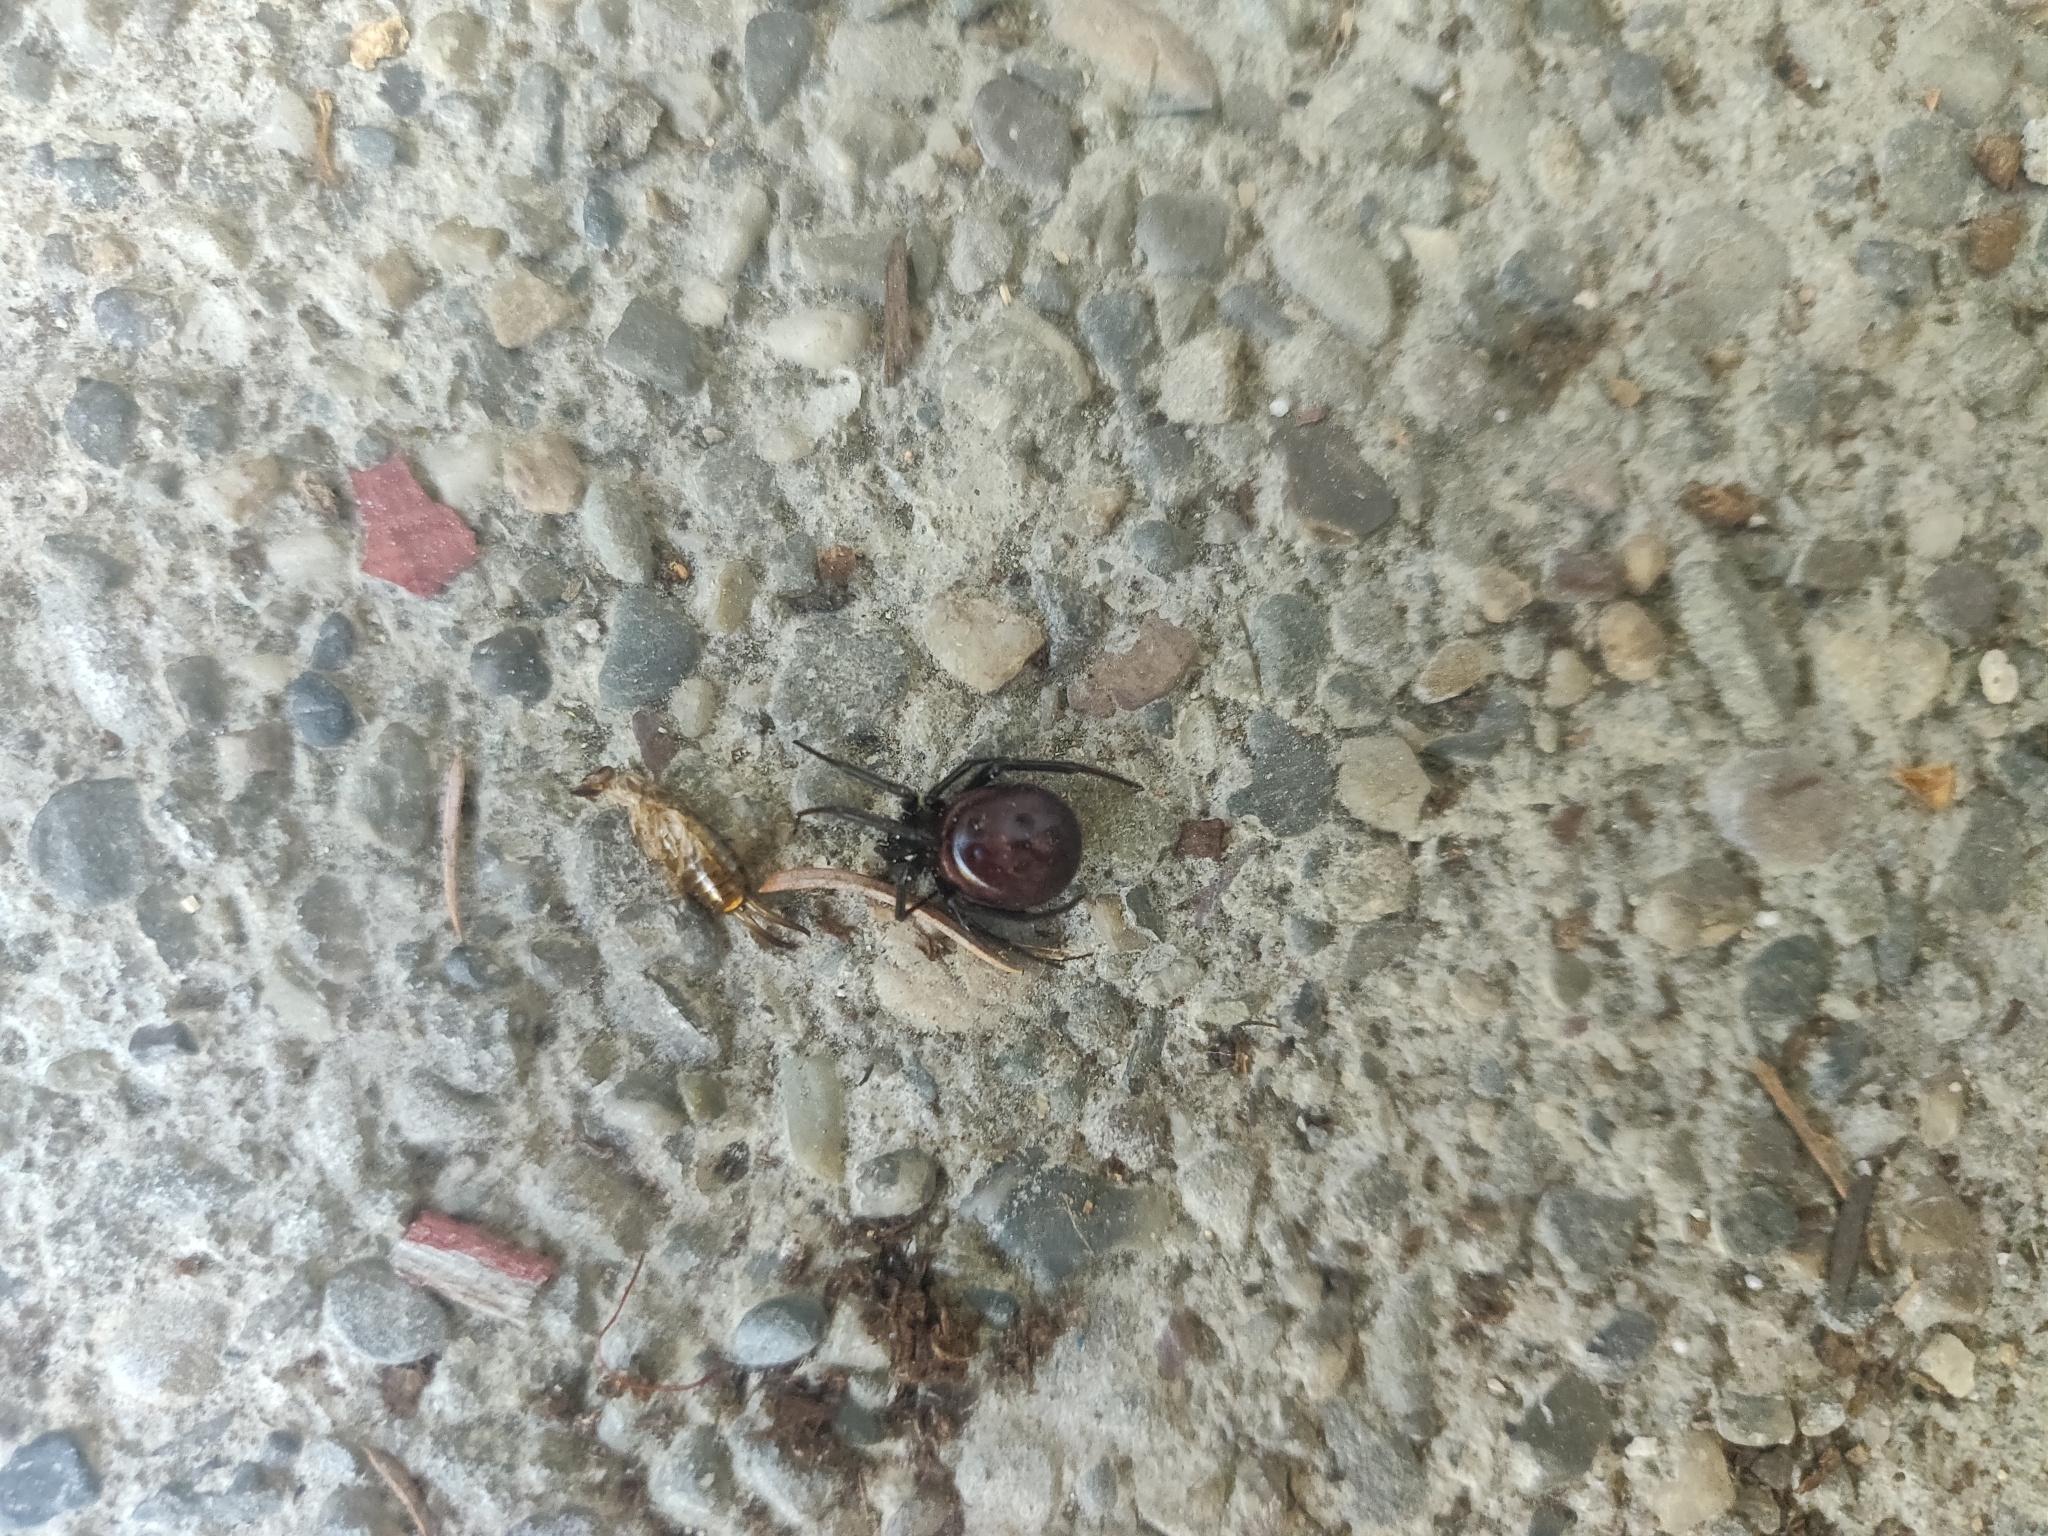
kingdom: Animalia
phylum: Arthropoda
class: Arachnida
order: Araneae
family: Theridiidae
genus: Steatoda
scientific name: Steatoda grossa
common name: False black widow
